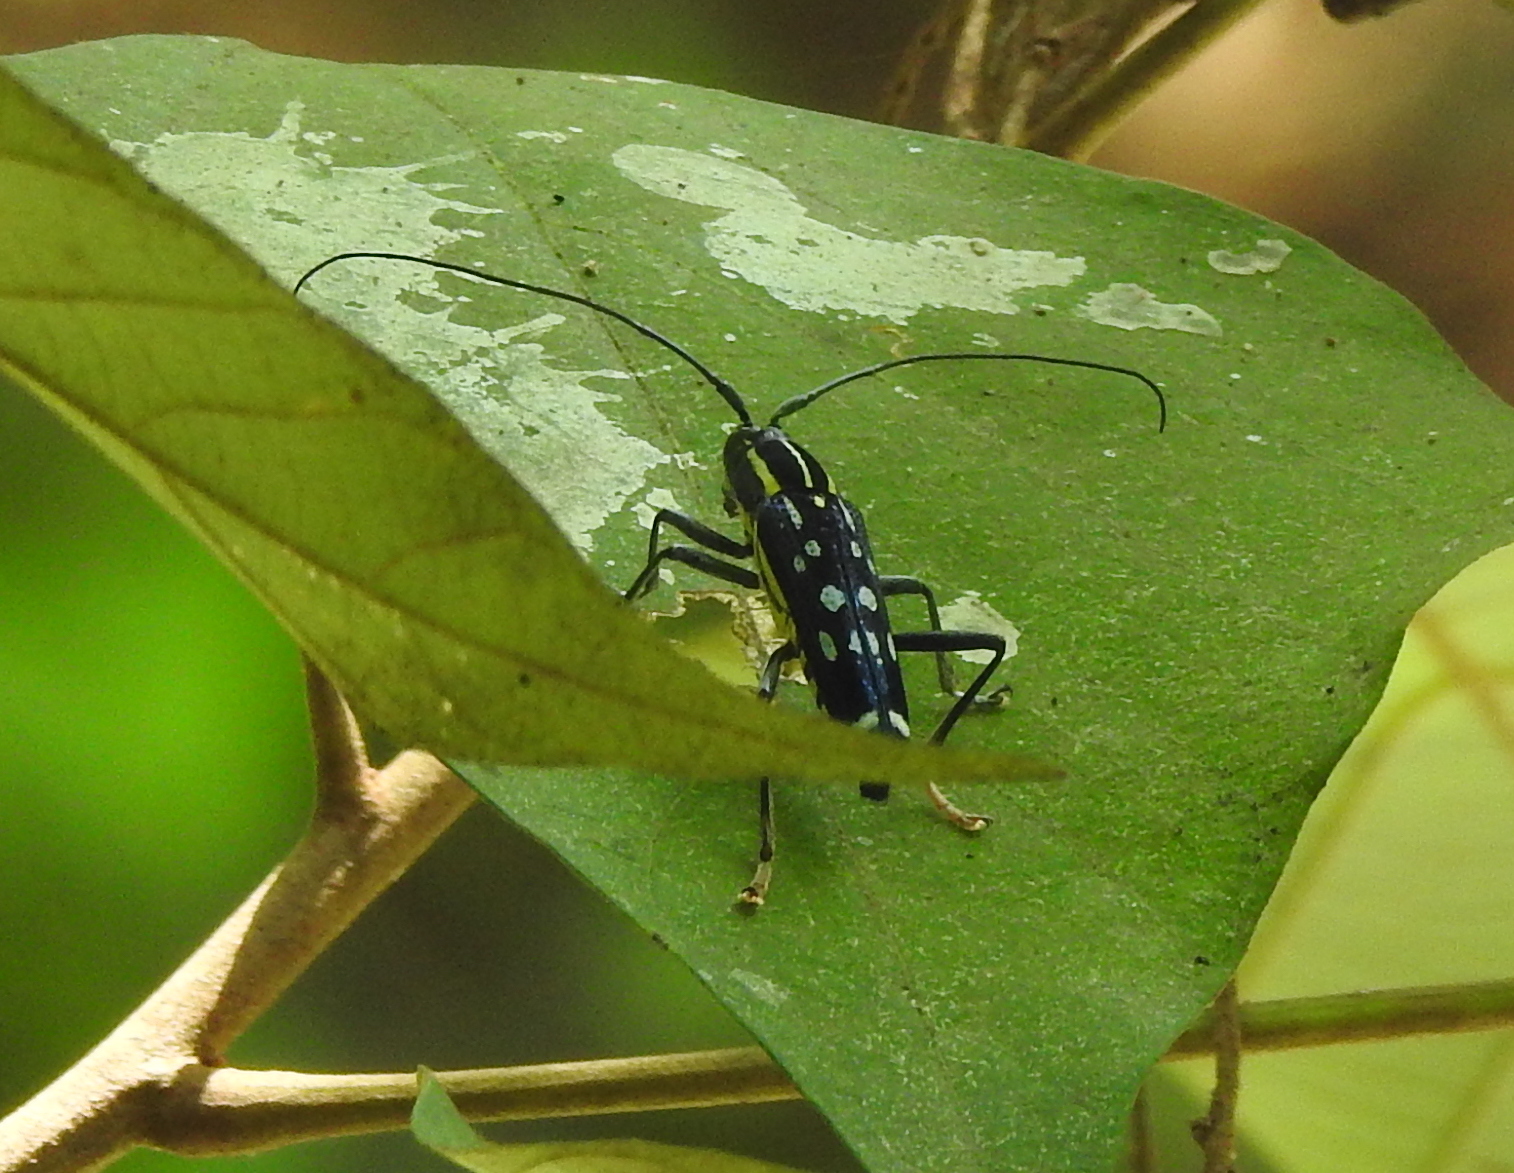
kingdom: Animalia
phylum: Arthropoda
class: Insecta
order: Coleoptera
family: Cerambycidae
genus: Glenea
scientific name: Glenea elegans
